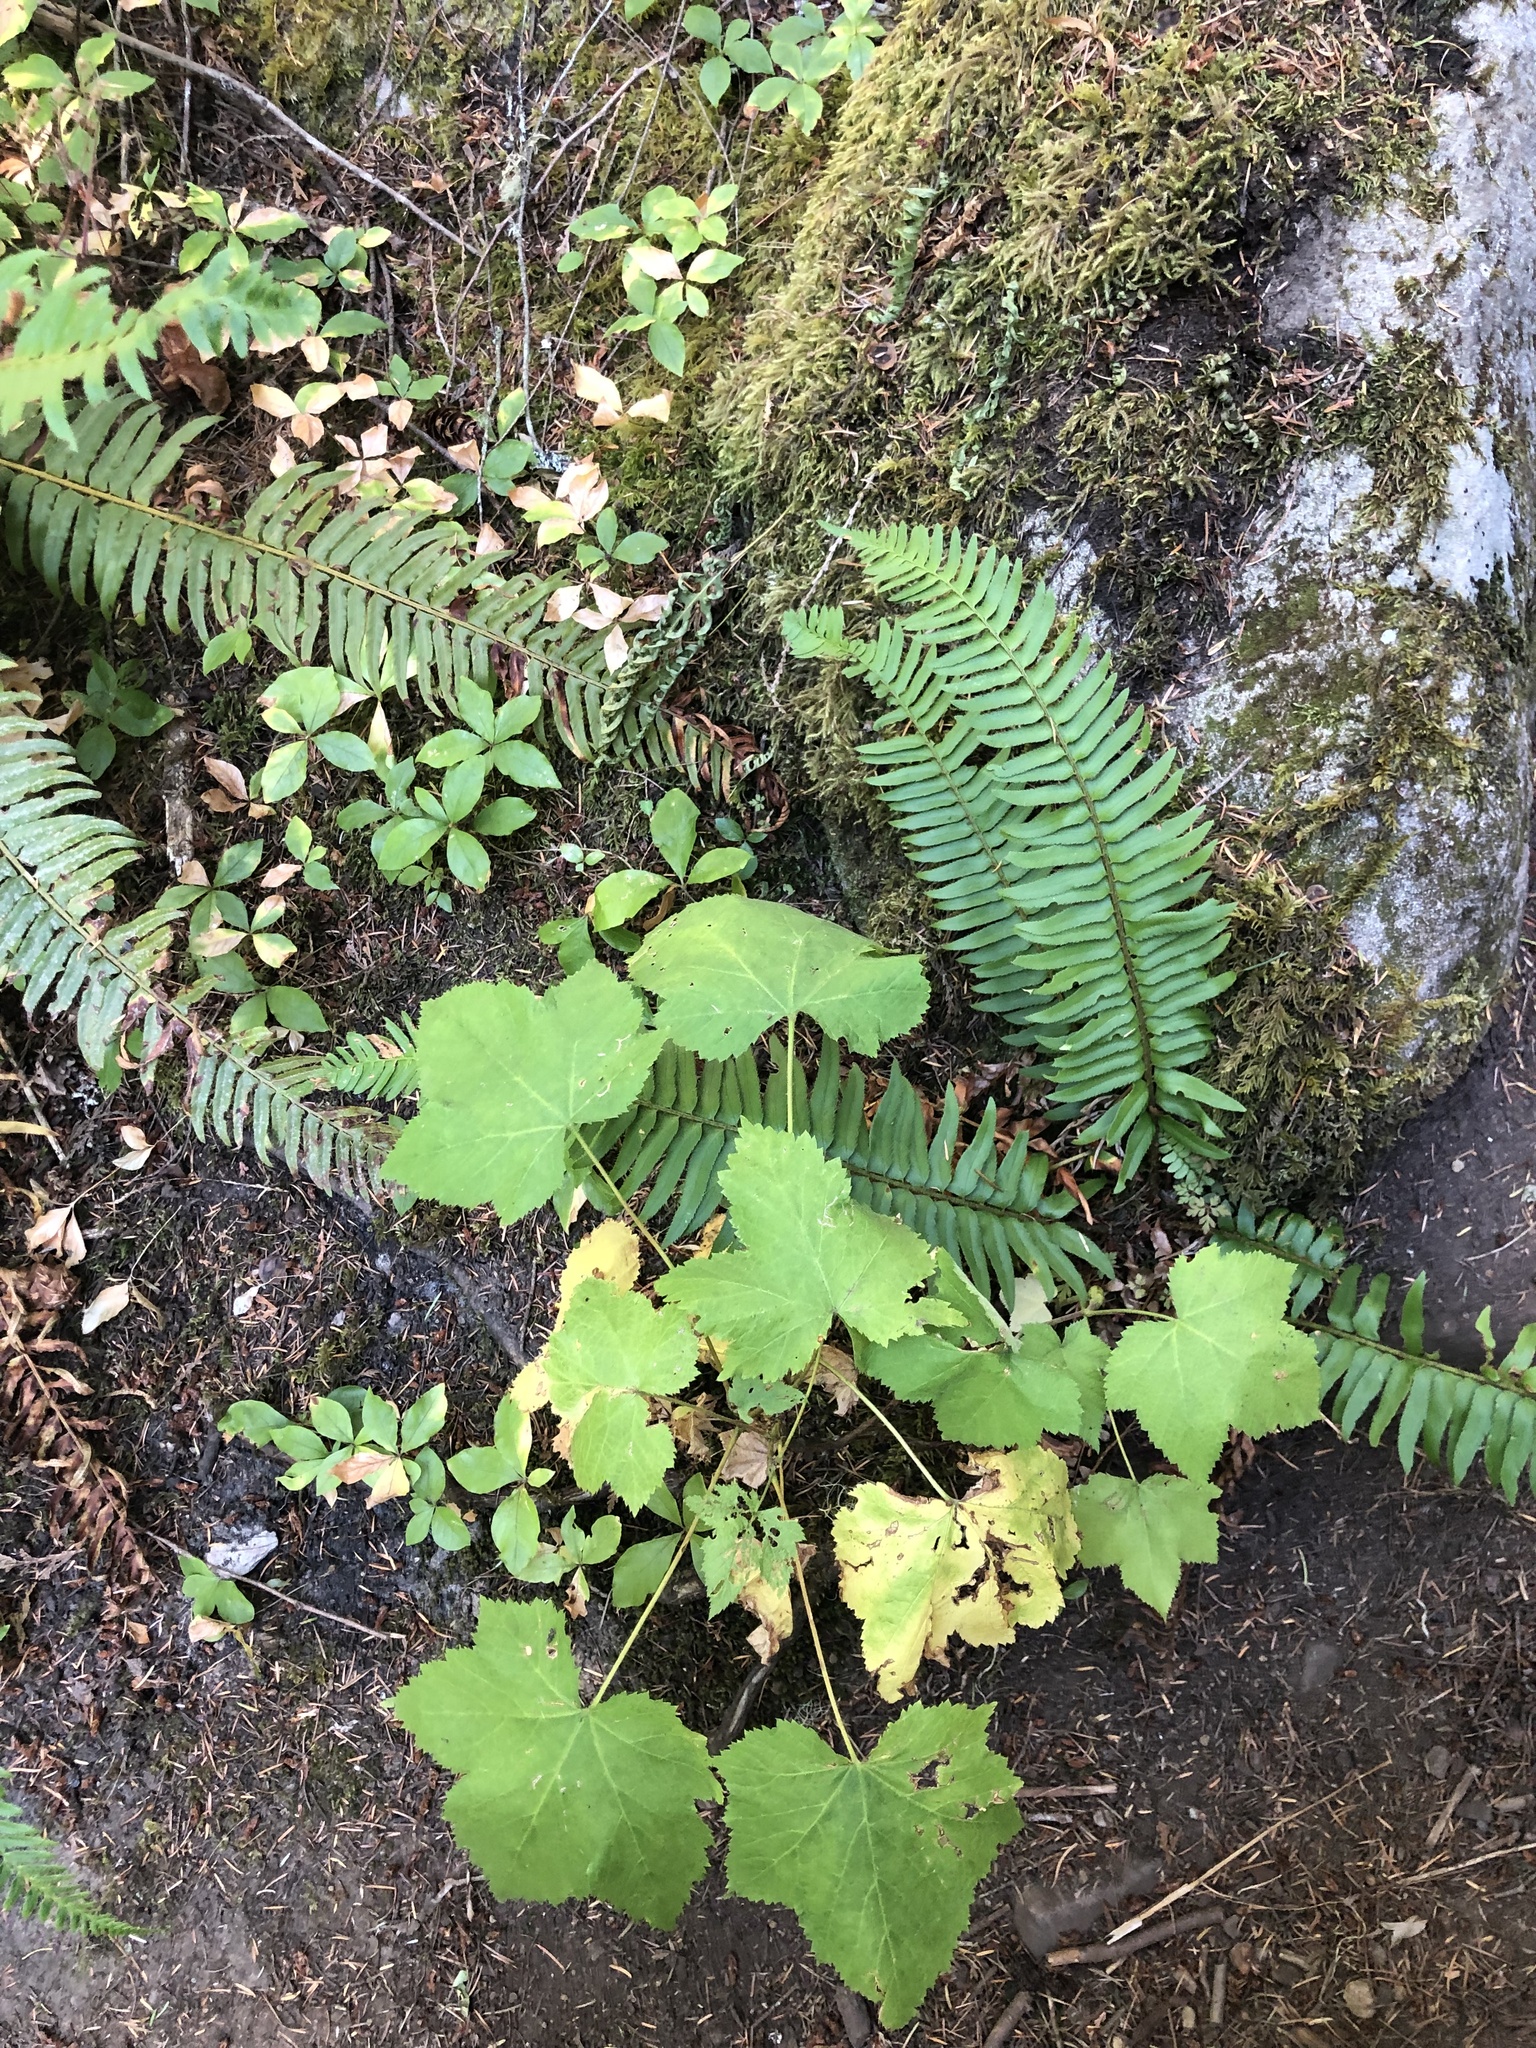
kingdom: Plantae
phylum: Tracheophyta
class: Magnoliopsida
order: Rosales
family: Rosaceae
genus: Rubus
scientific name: Rubus parviflorus
